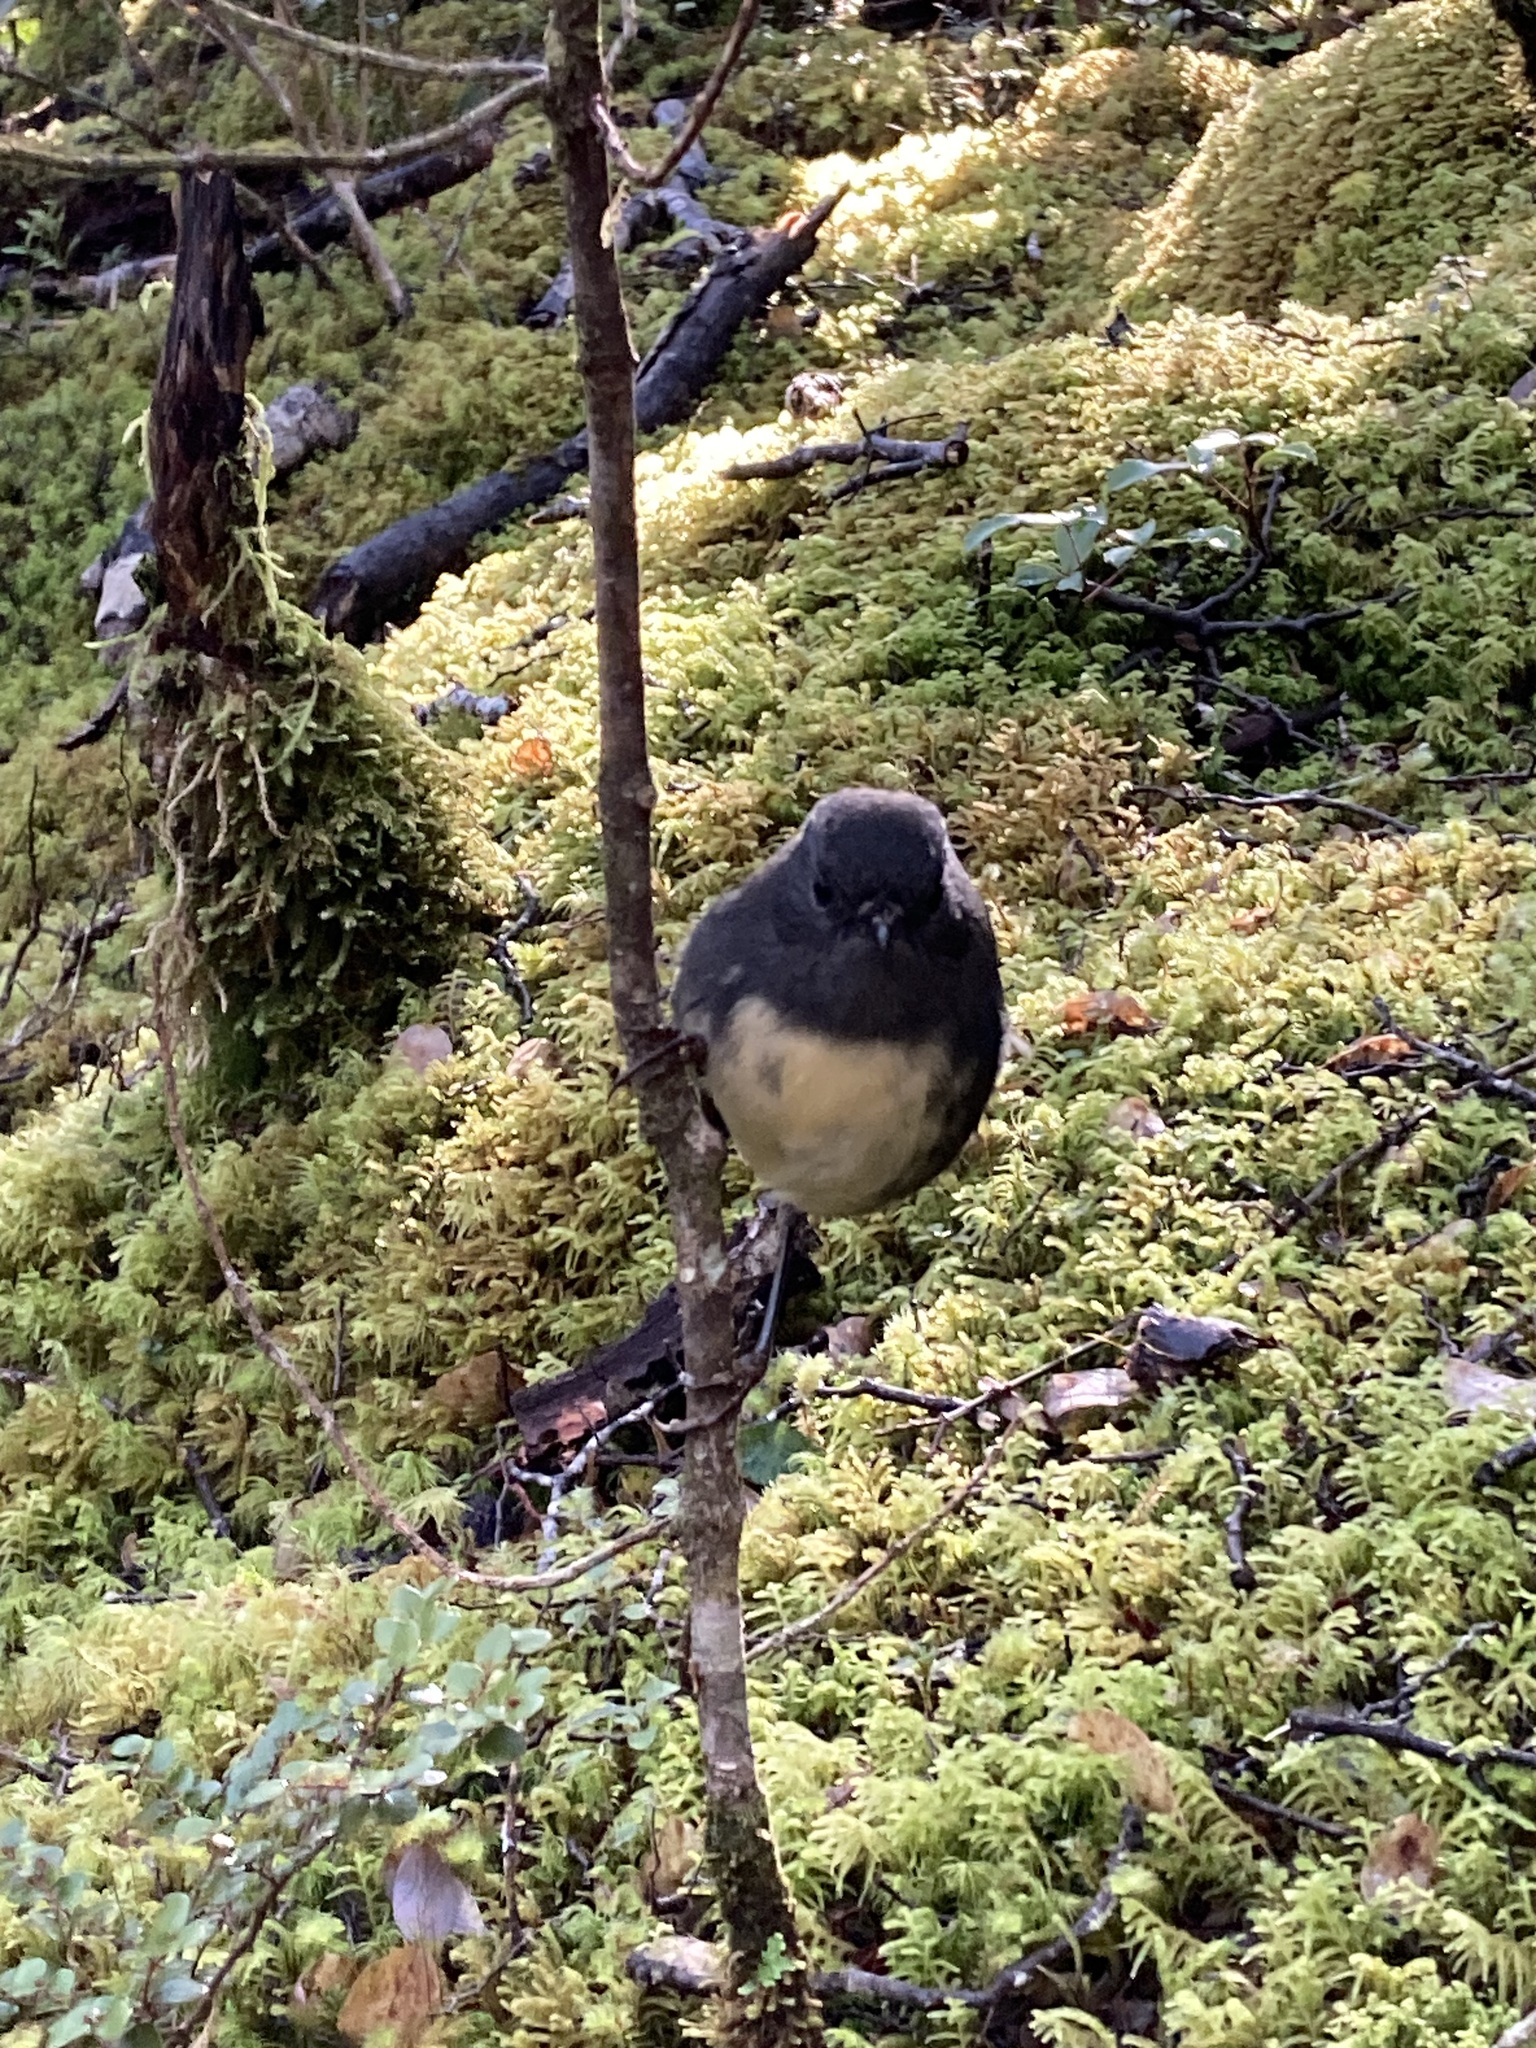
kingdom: Animalia
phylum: Chordata
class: Aves
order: Passeriformes
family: Petroicidae
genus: Petroica
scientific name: Petroica australis
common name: New zealand robin
